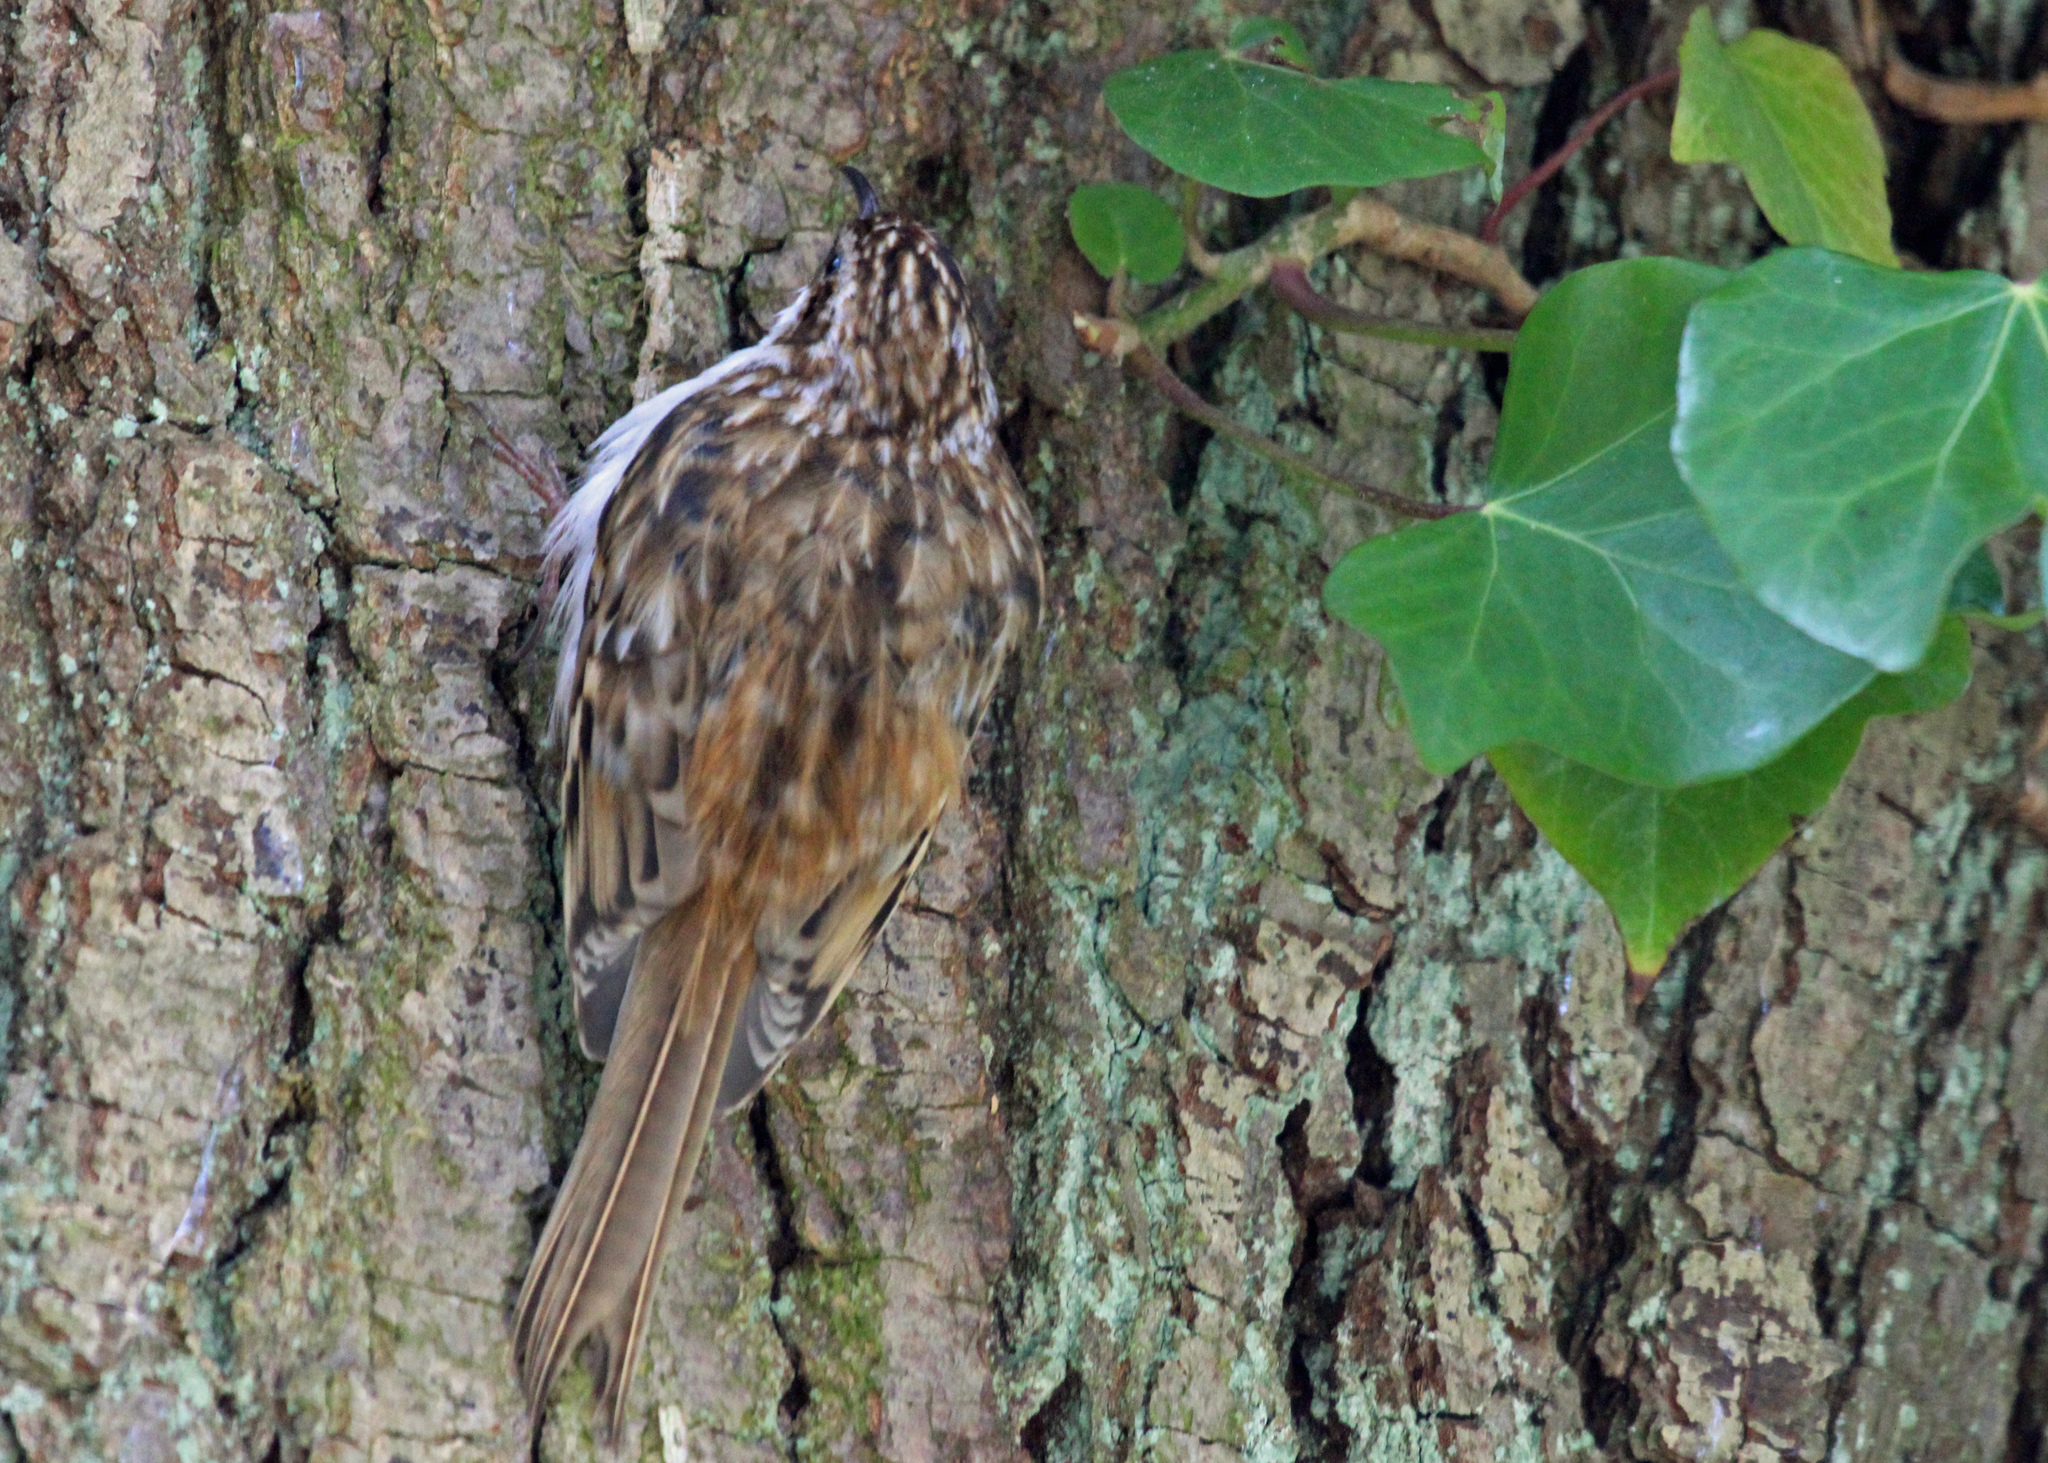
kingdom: Animalia
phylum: Chordata
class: Aves
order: Passeriformes
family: Certhiidae
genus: Certhia
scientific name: Certhia familiaris
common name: Eurasian treecreeper
